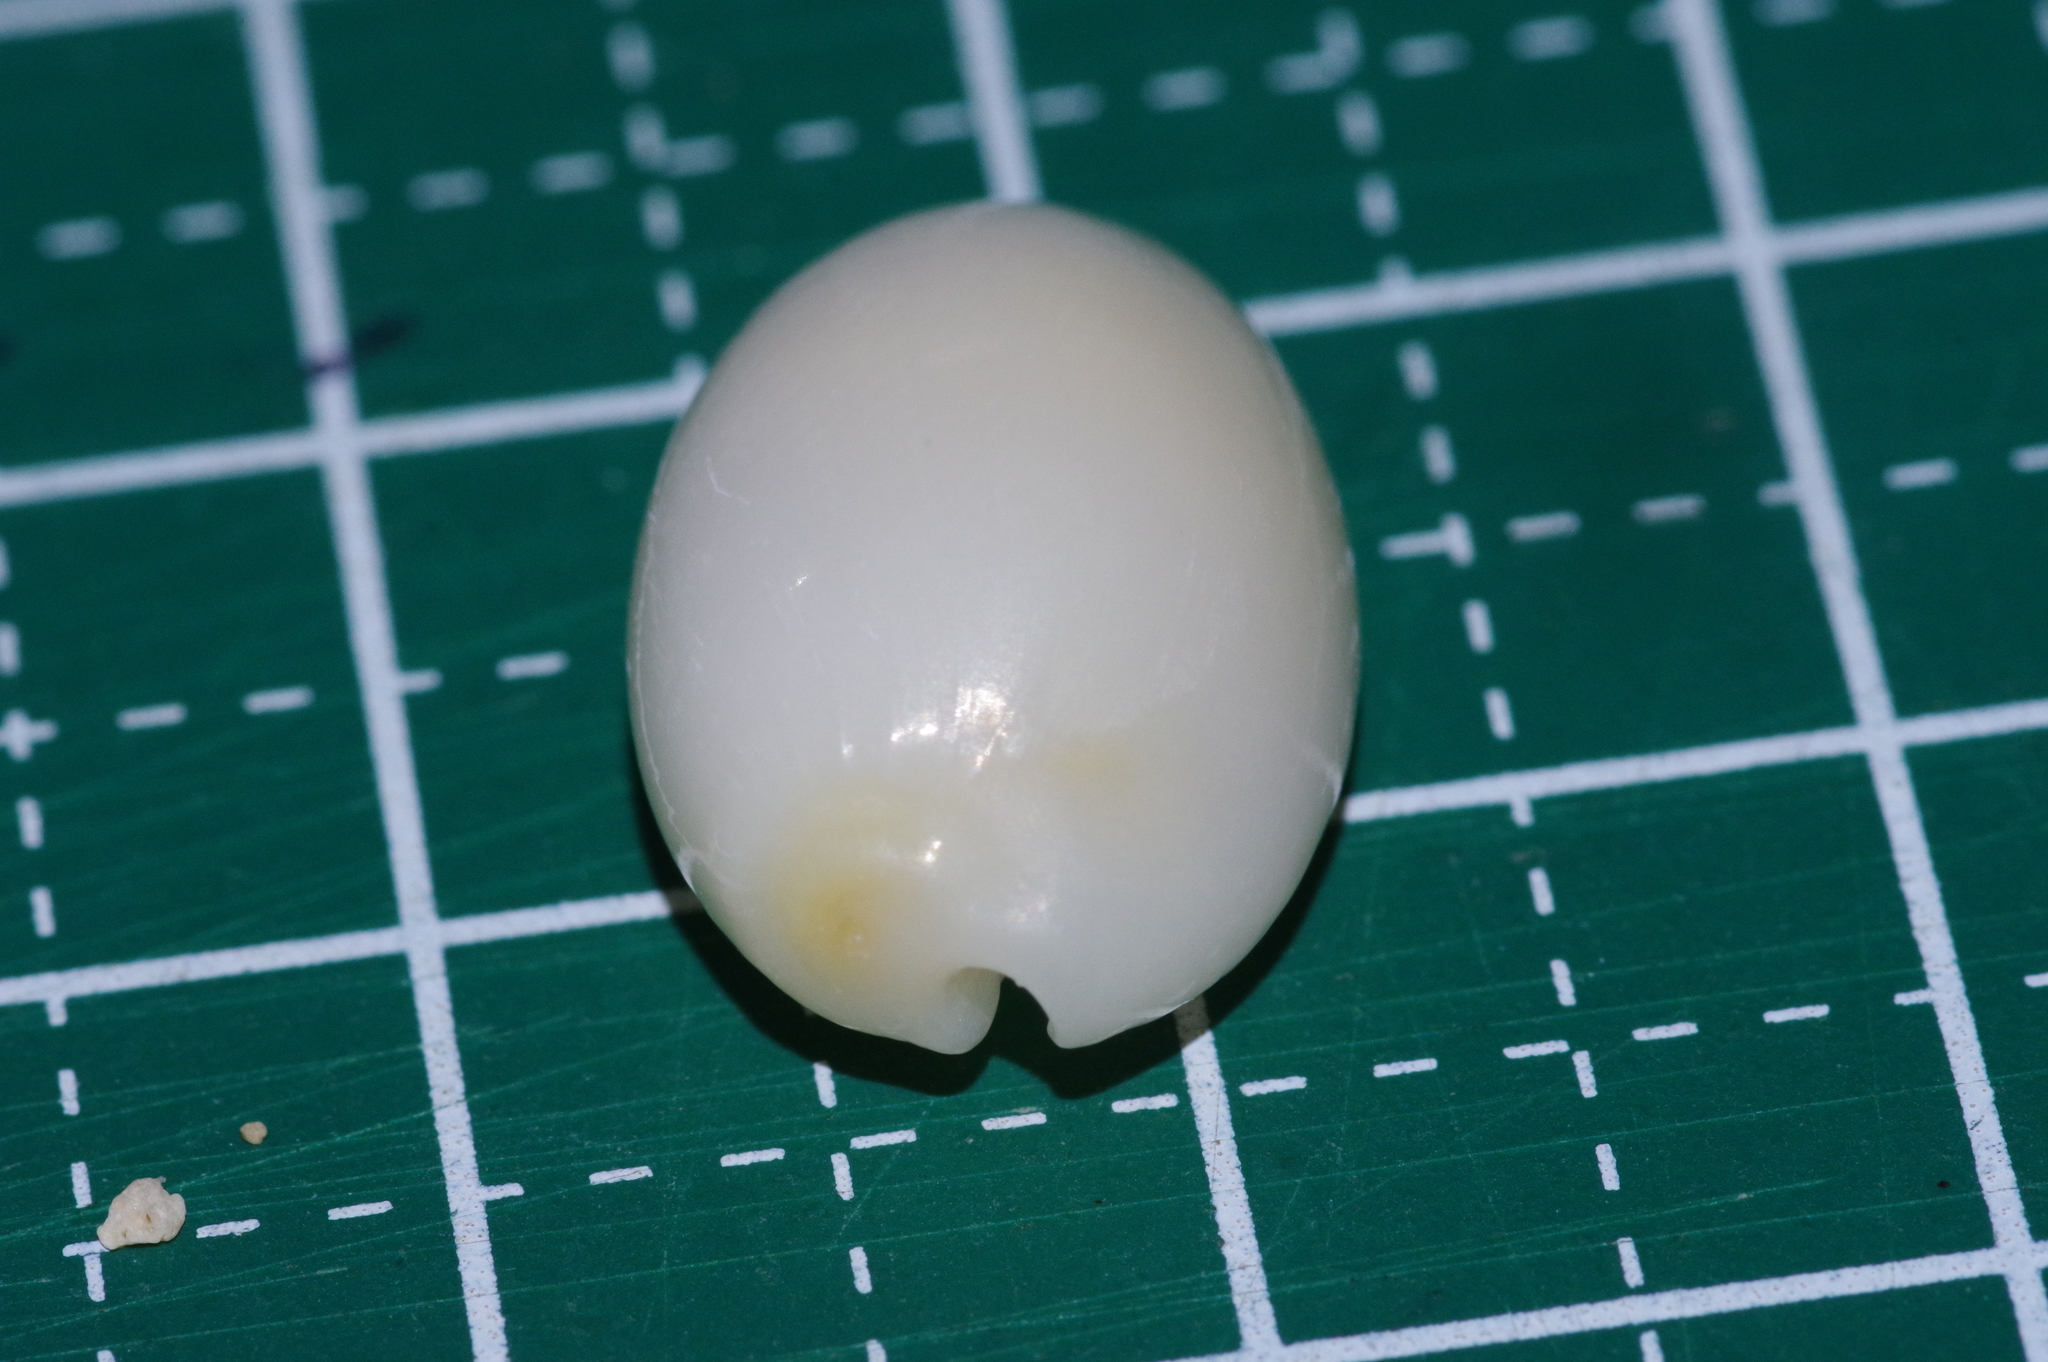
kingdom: Animalia
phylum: Mollusca
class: Gastropoda
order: Littorinimorpha
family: Cypraeidae
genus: Monetaria
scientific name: Monetaria annulus
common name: Ring cowrie
